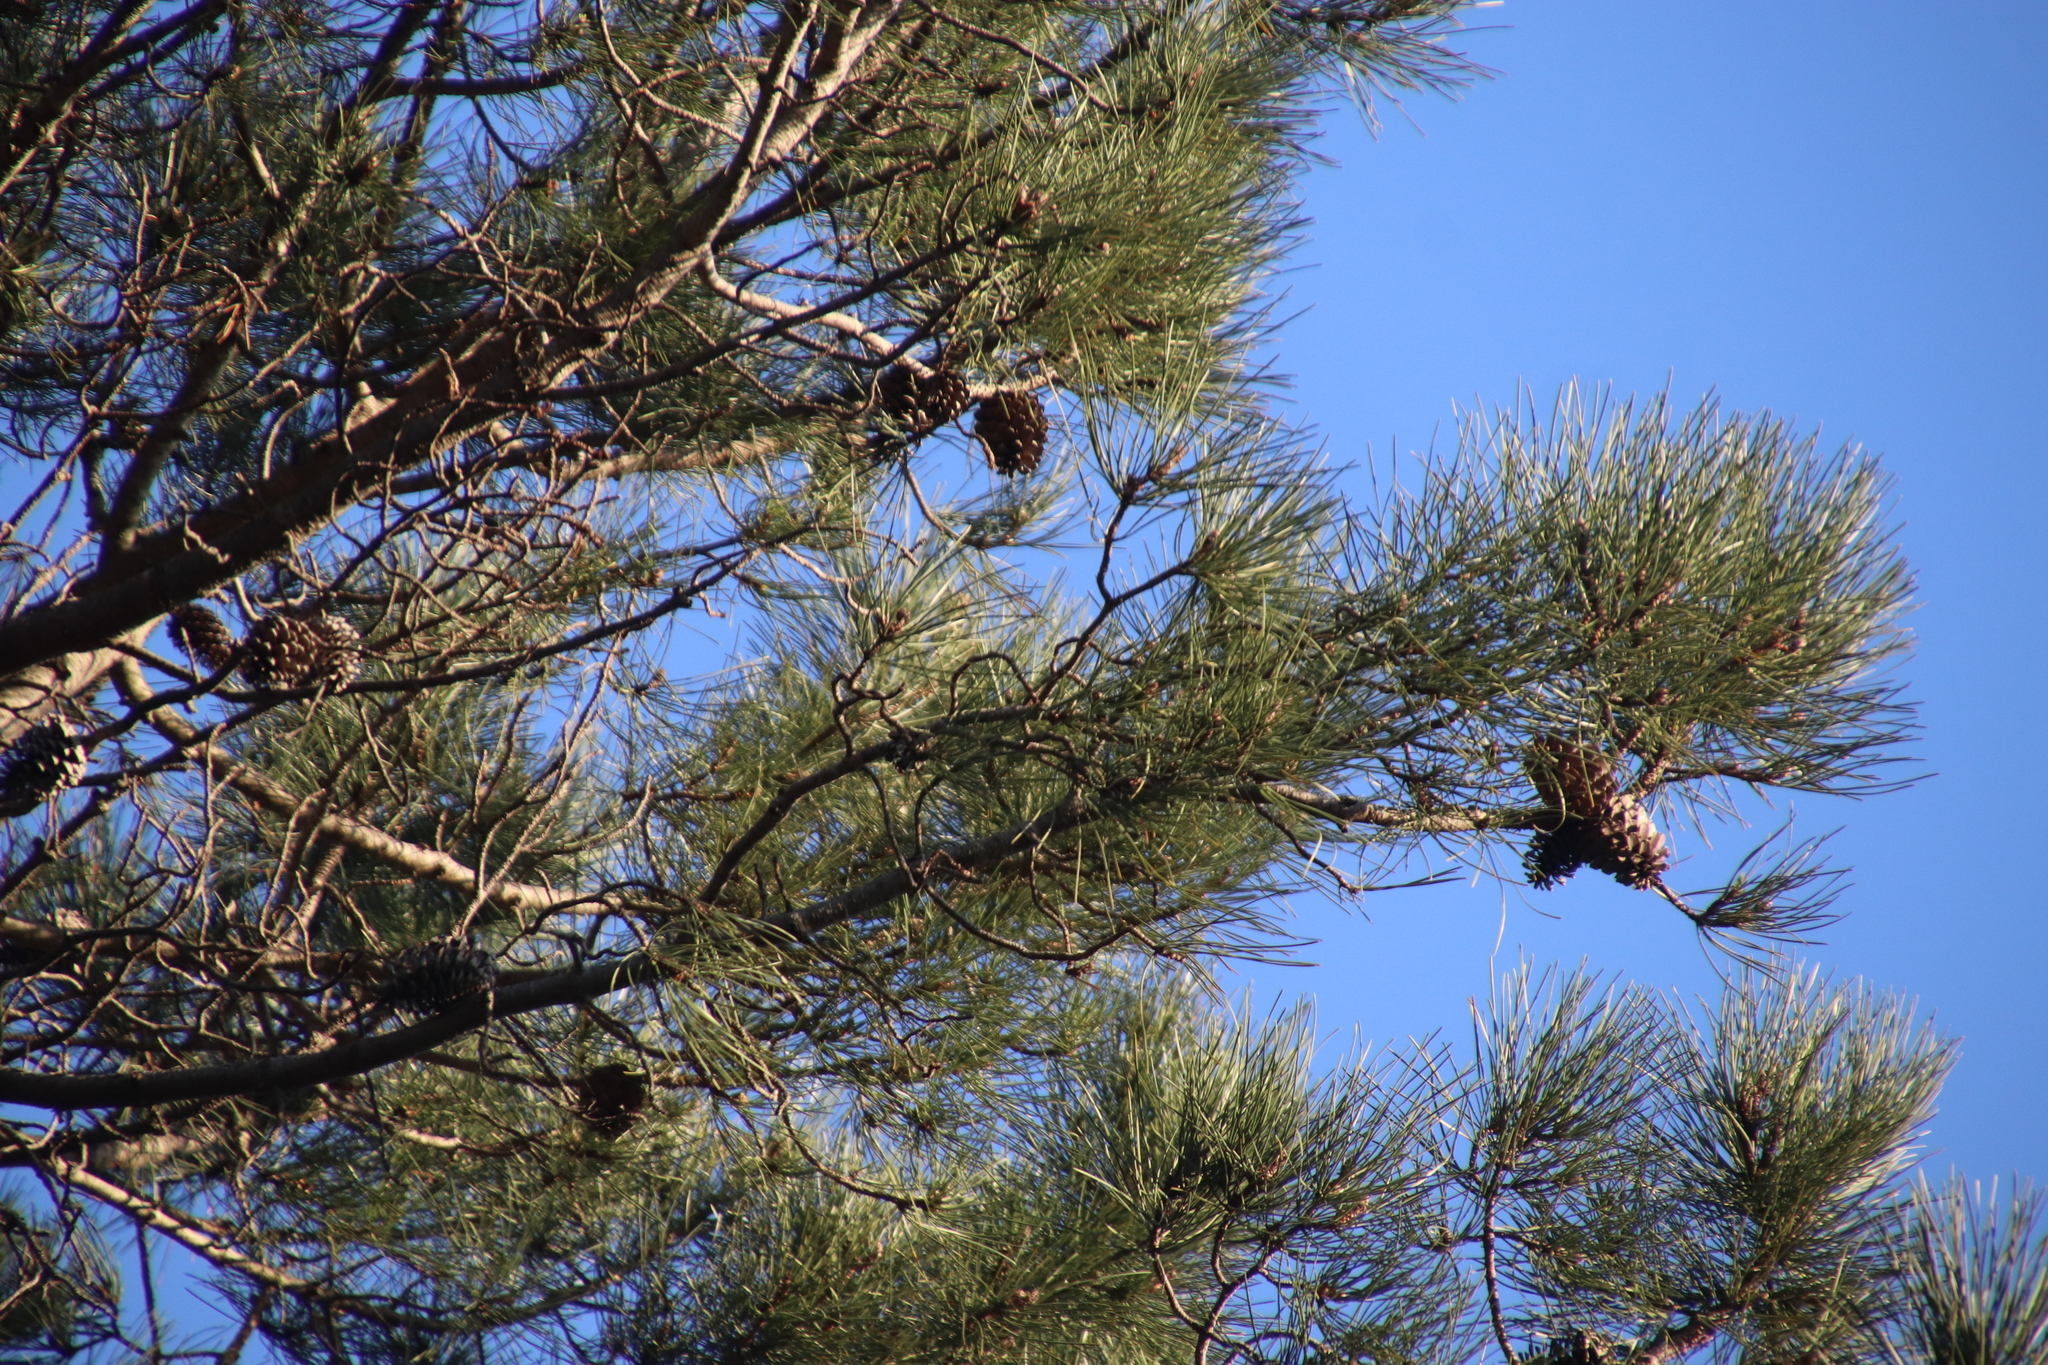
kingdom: Plantae
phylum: Tracheophyta
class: Pinopsida
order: Pinales
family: Pinaceae
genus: Pinus
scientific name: Pinus pinaster
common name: Maritime pine
